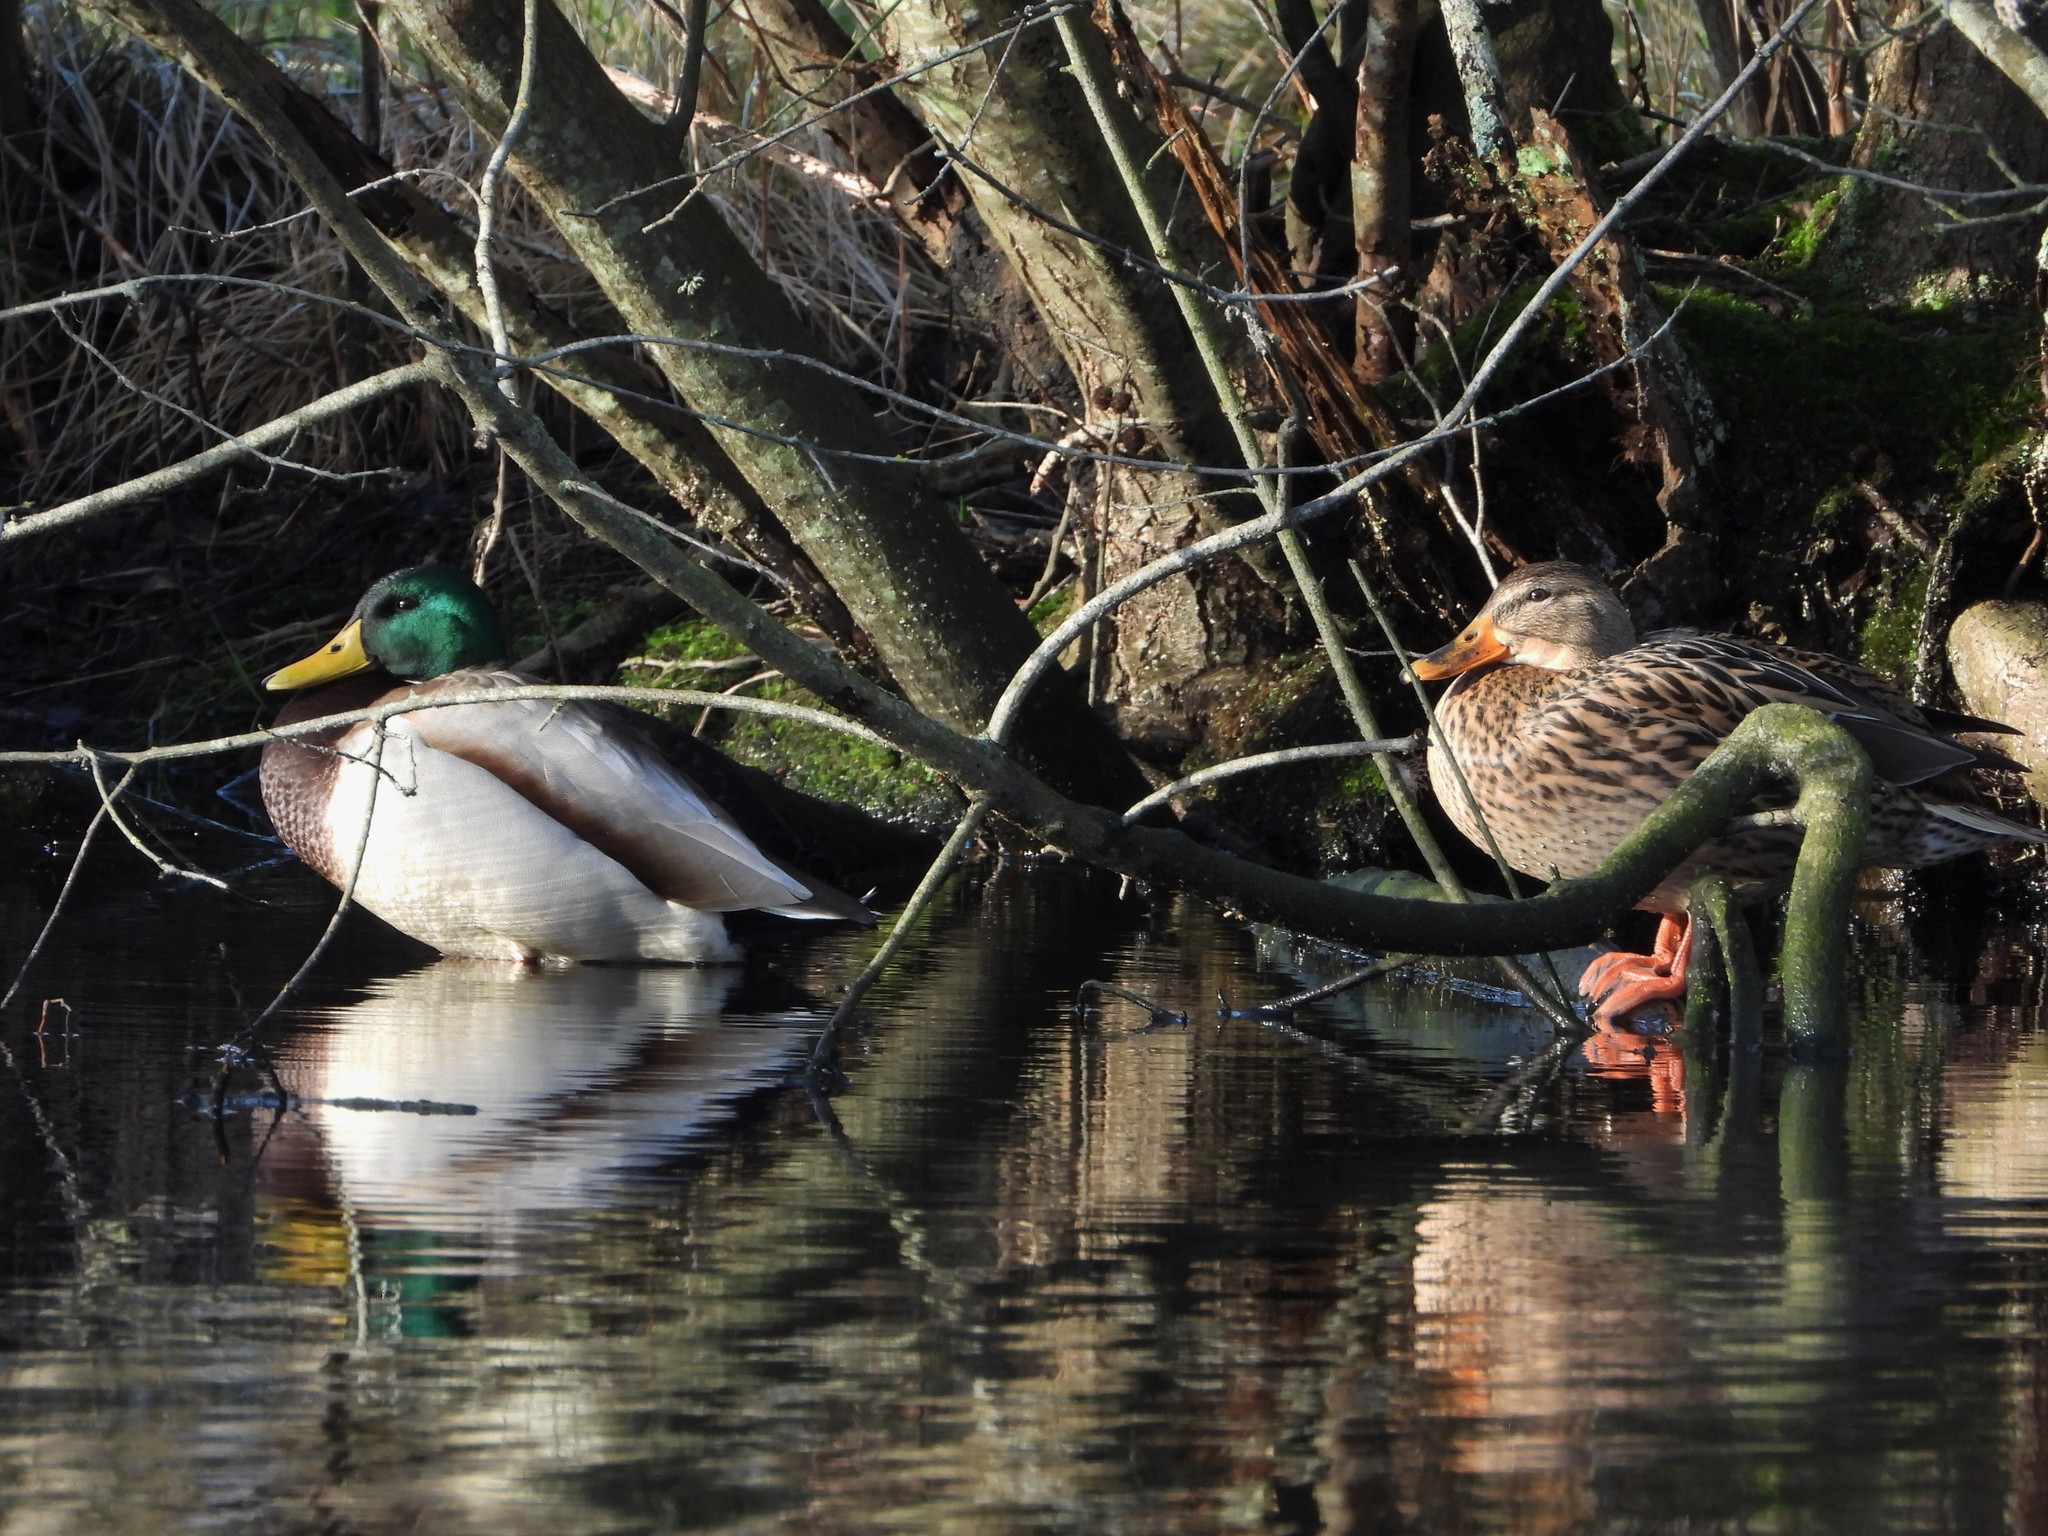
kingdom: Animalia
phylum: Chordata
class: Aves
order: Anseriformes
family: Anatidae
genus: Anas
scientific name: Anas platyrhynchos
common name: Mallard
